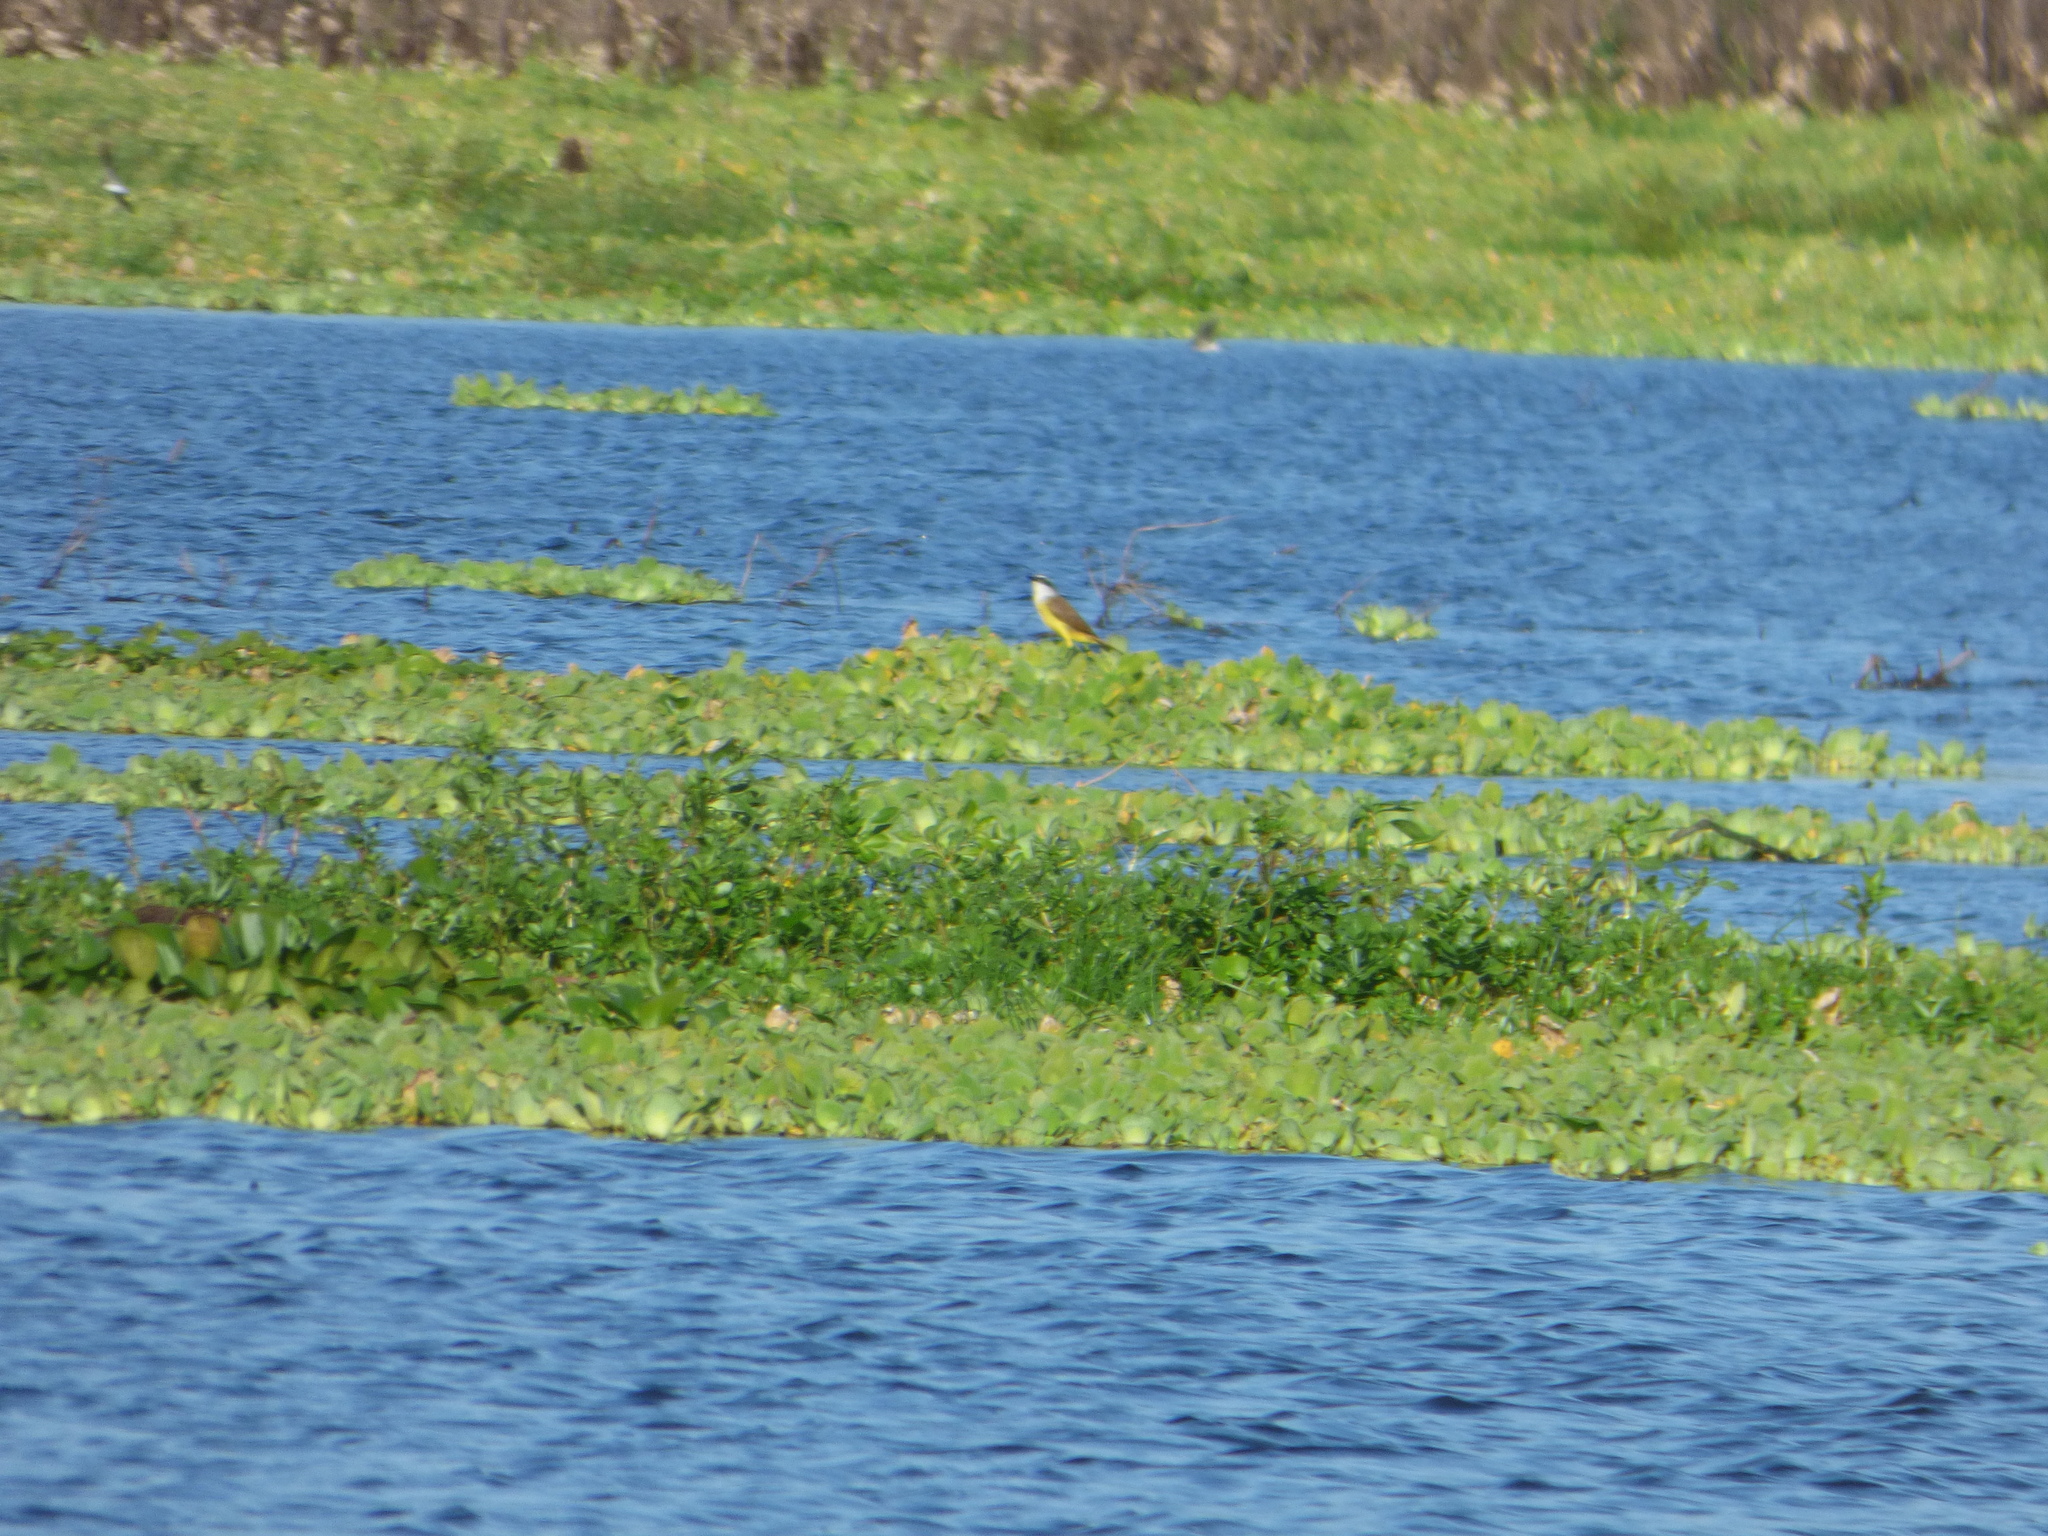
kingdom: Animalia
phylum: Chordata
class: Aves
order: Passeriformes
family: Tyrannidae
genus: Pitangus
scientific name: Pitangus sulphuratus
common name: Great kiskadee
